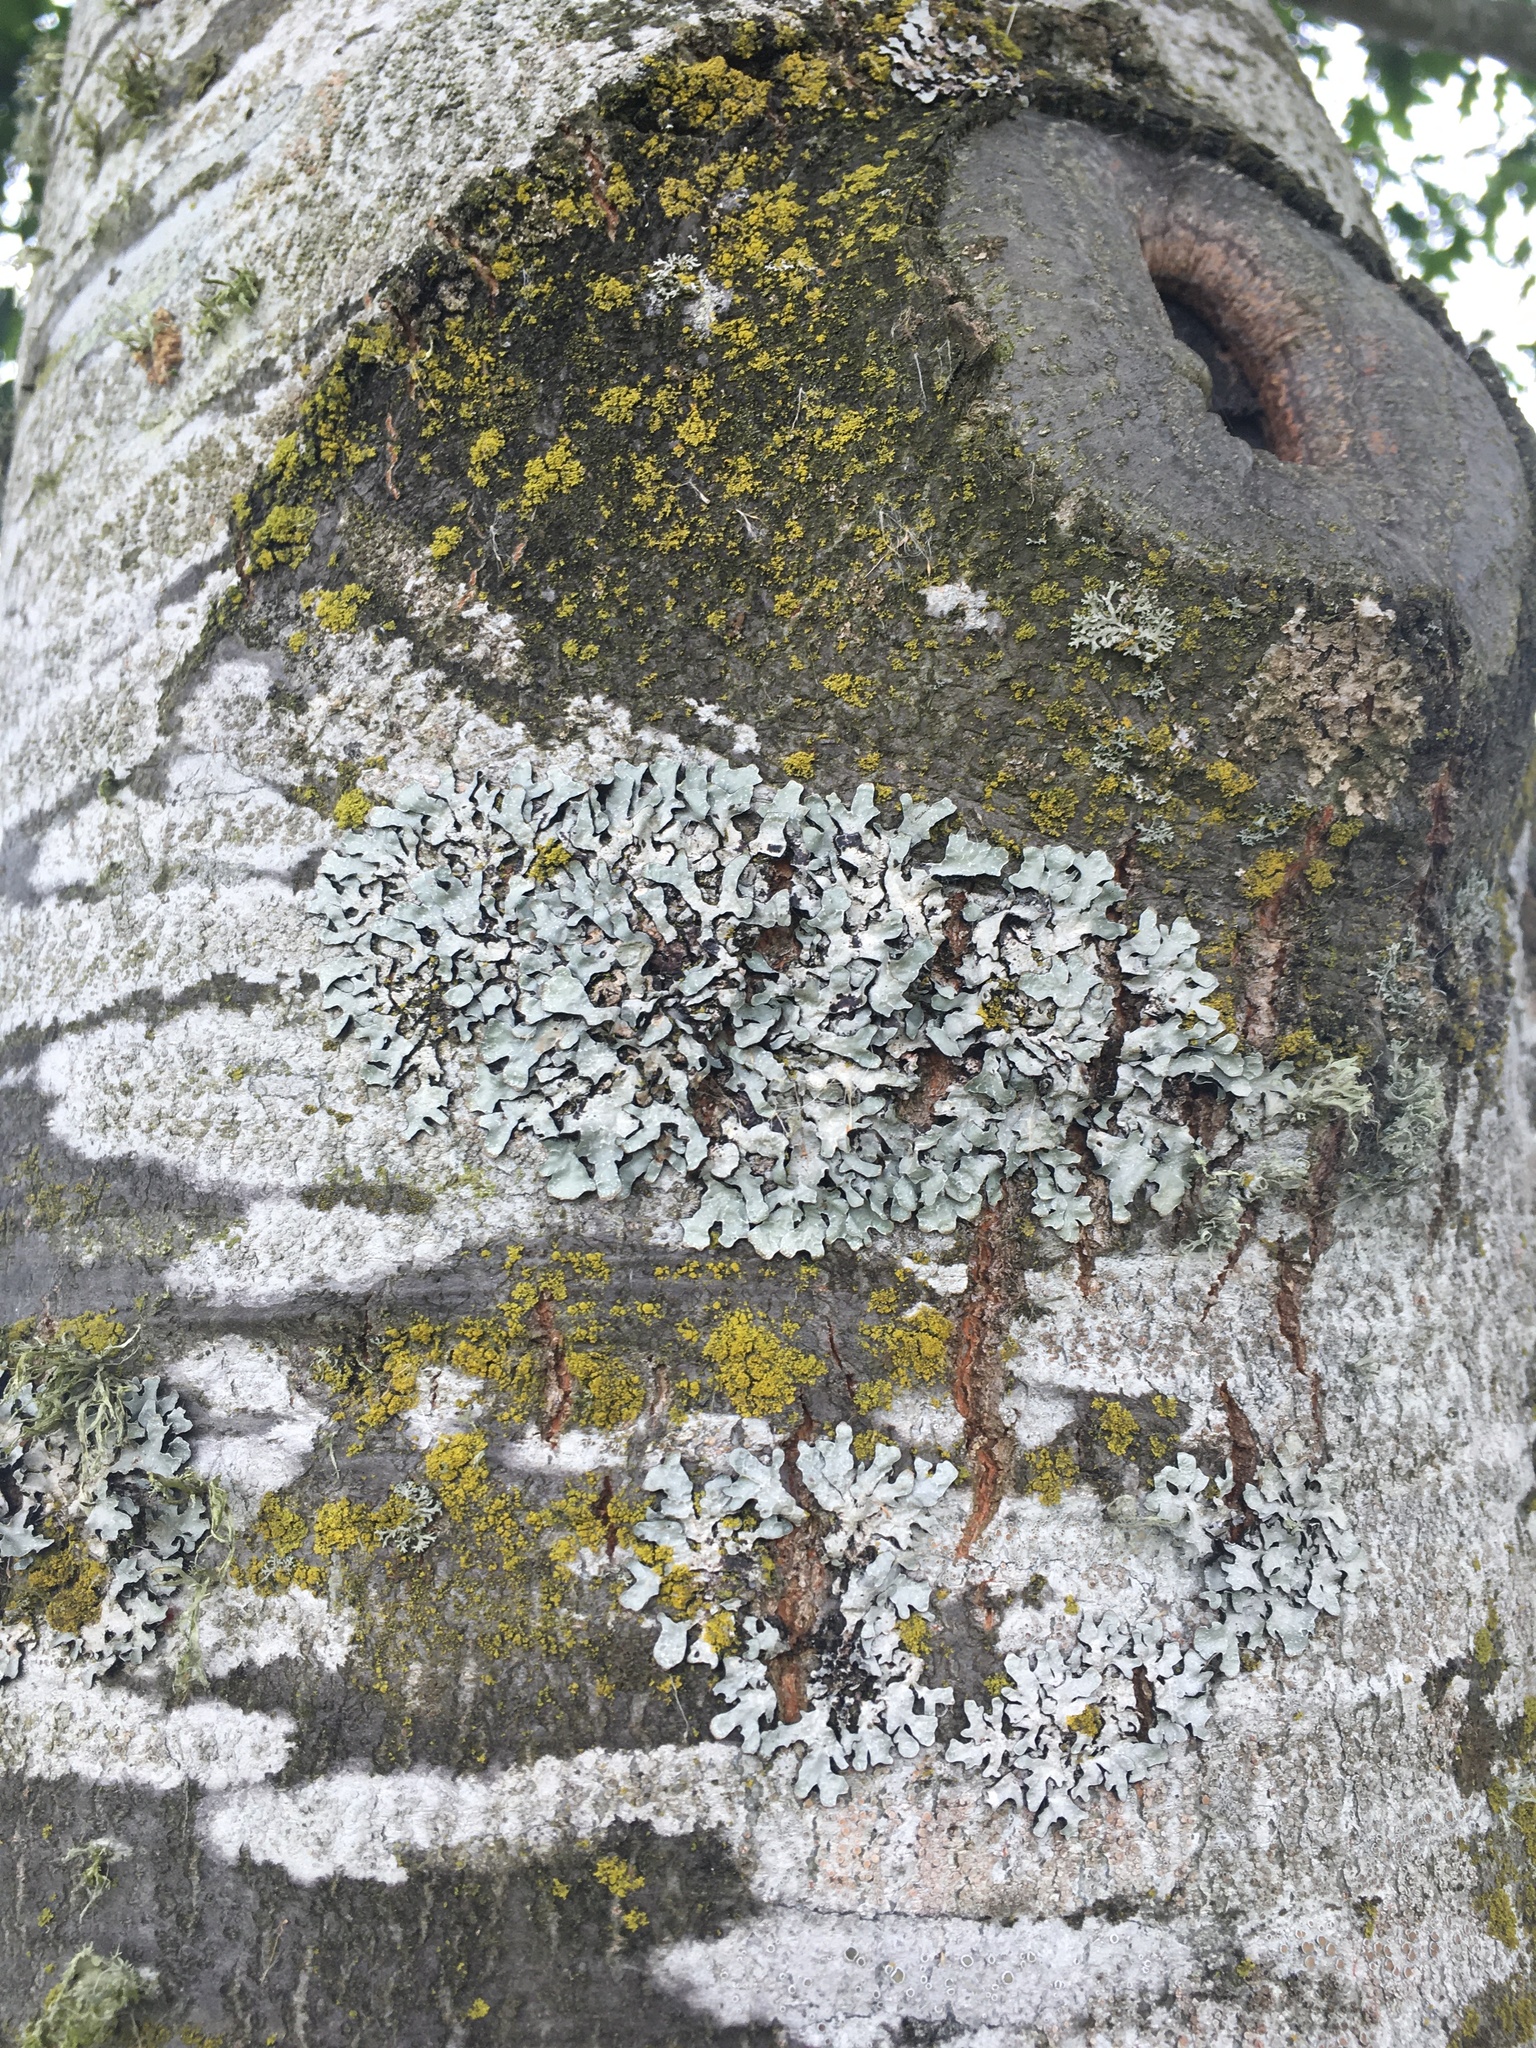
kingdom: Fungi
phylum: Ascomycota
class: Lecanoromycetes
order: Lecanorales
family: Parmeliaceae
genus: Parmelia
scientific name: Parmelia sulcata
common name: Netted shield lichen
